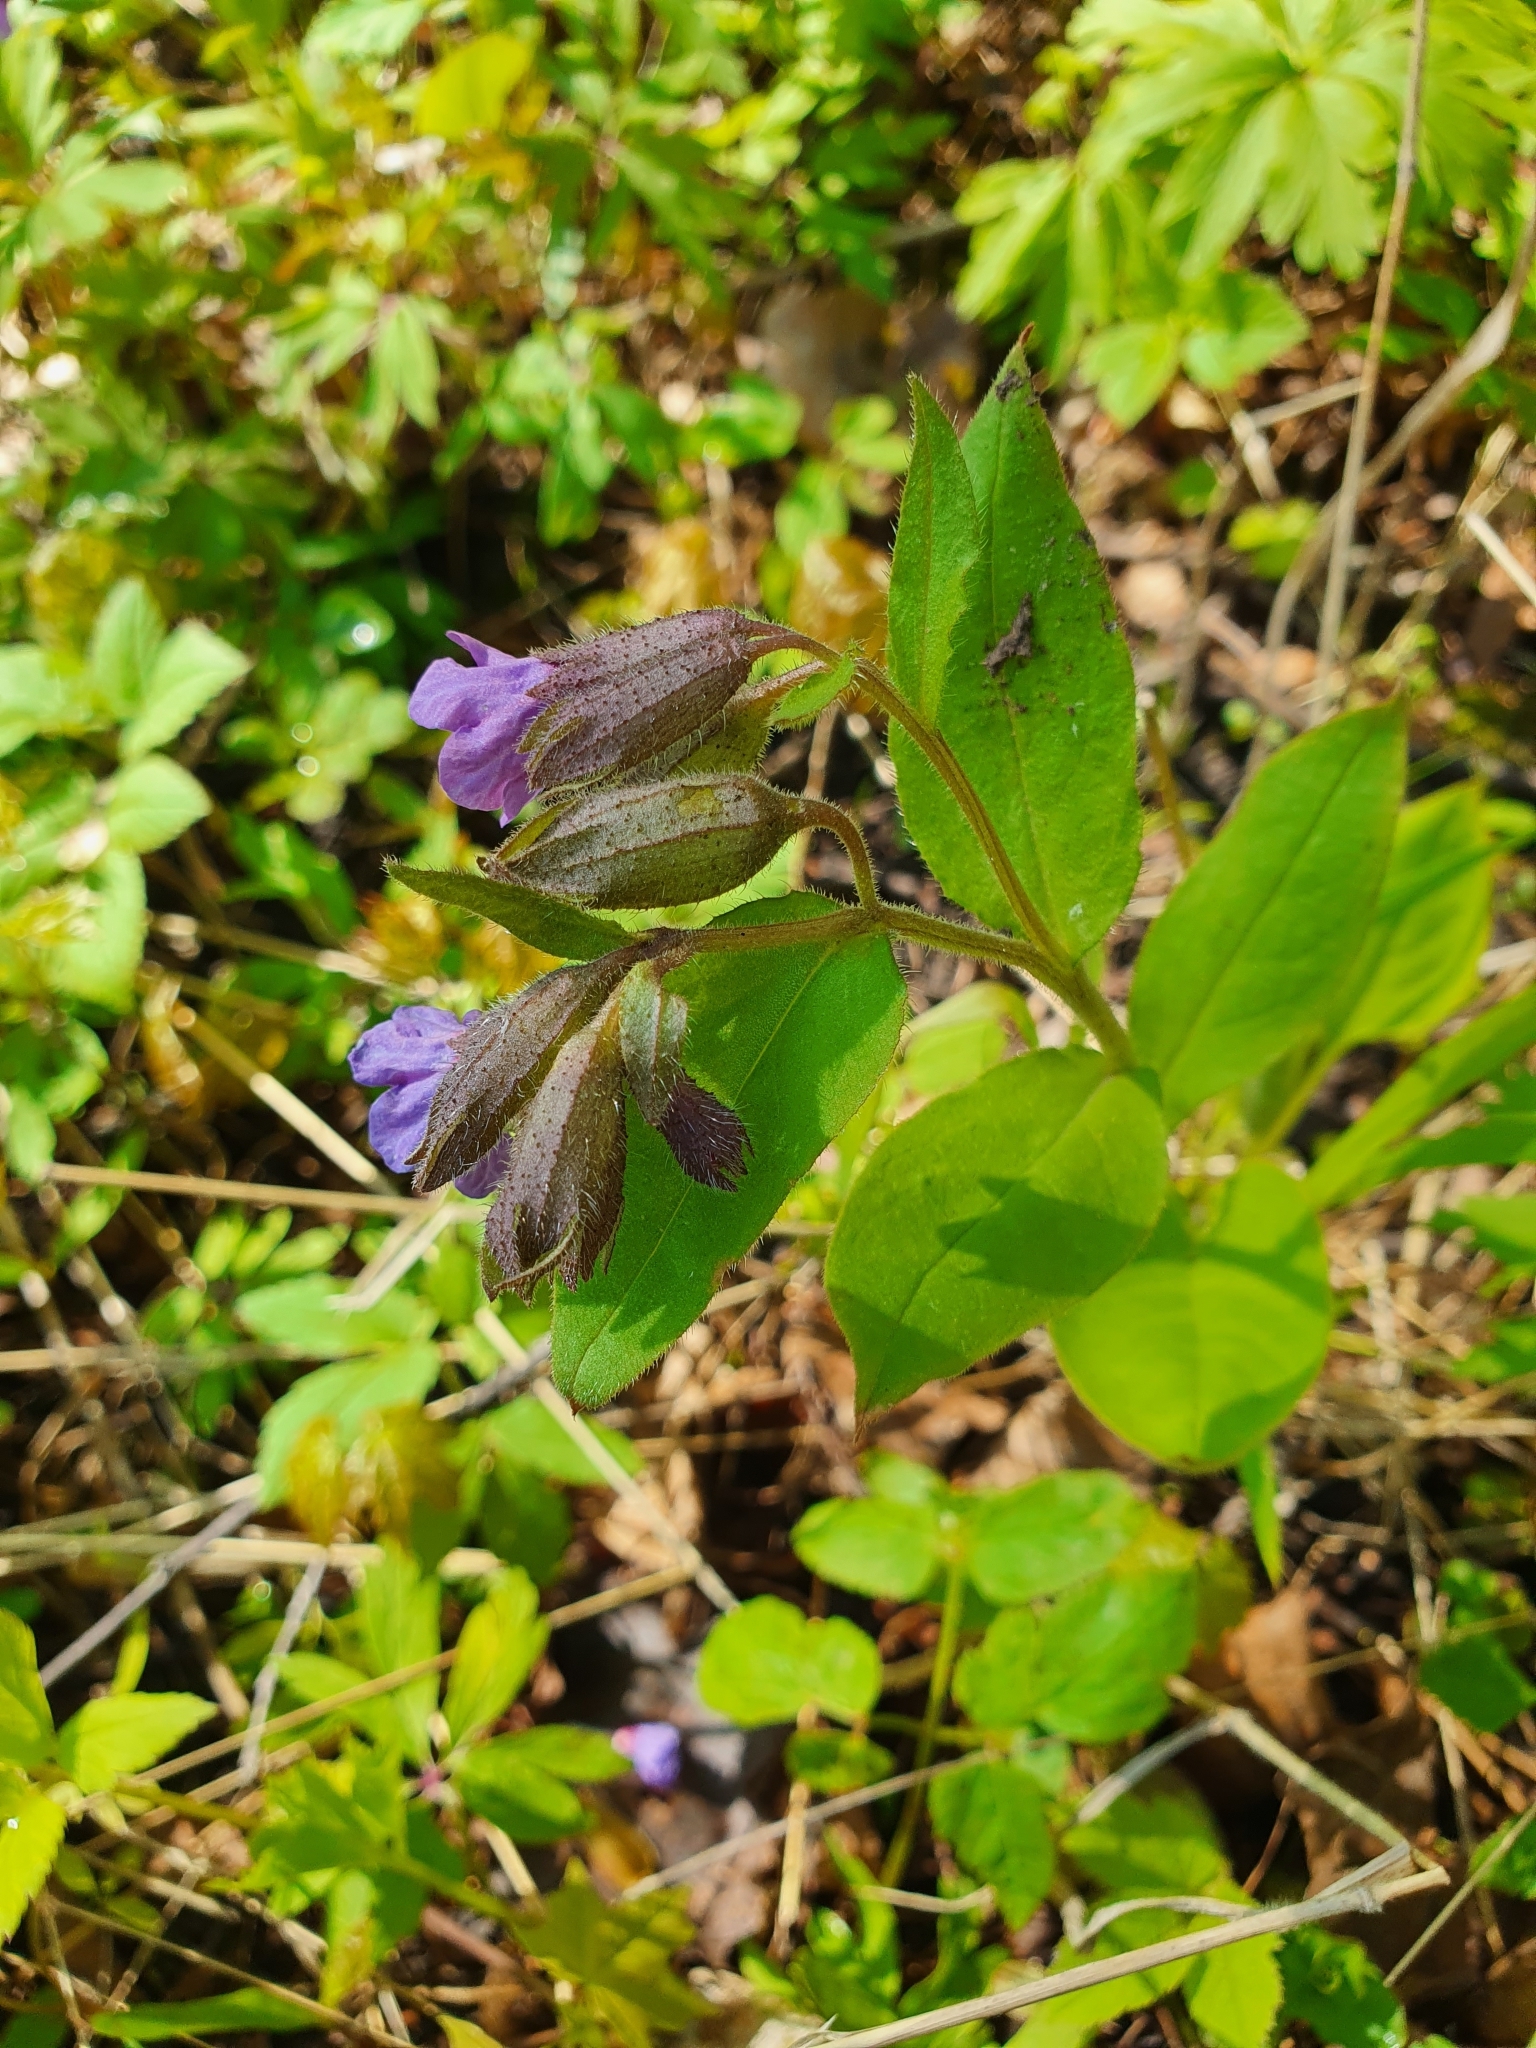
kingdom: Plantae
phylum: Tracheophyta
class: Magnoliopsida
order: Boraginales
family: Boraginaceae
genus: Pulmonaria
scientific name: Pulmonaria obscura
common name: Suffolk lungwort
